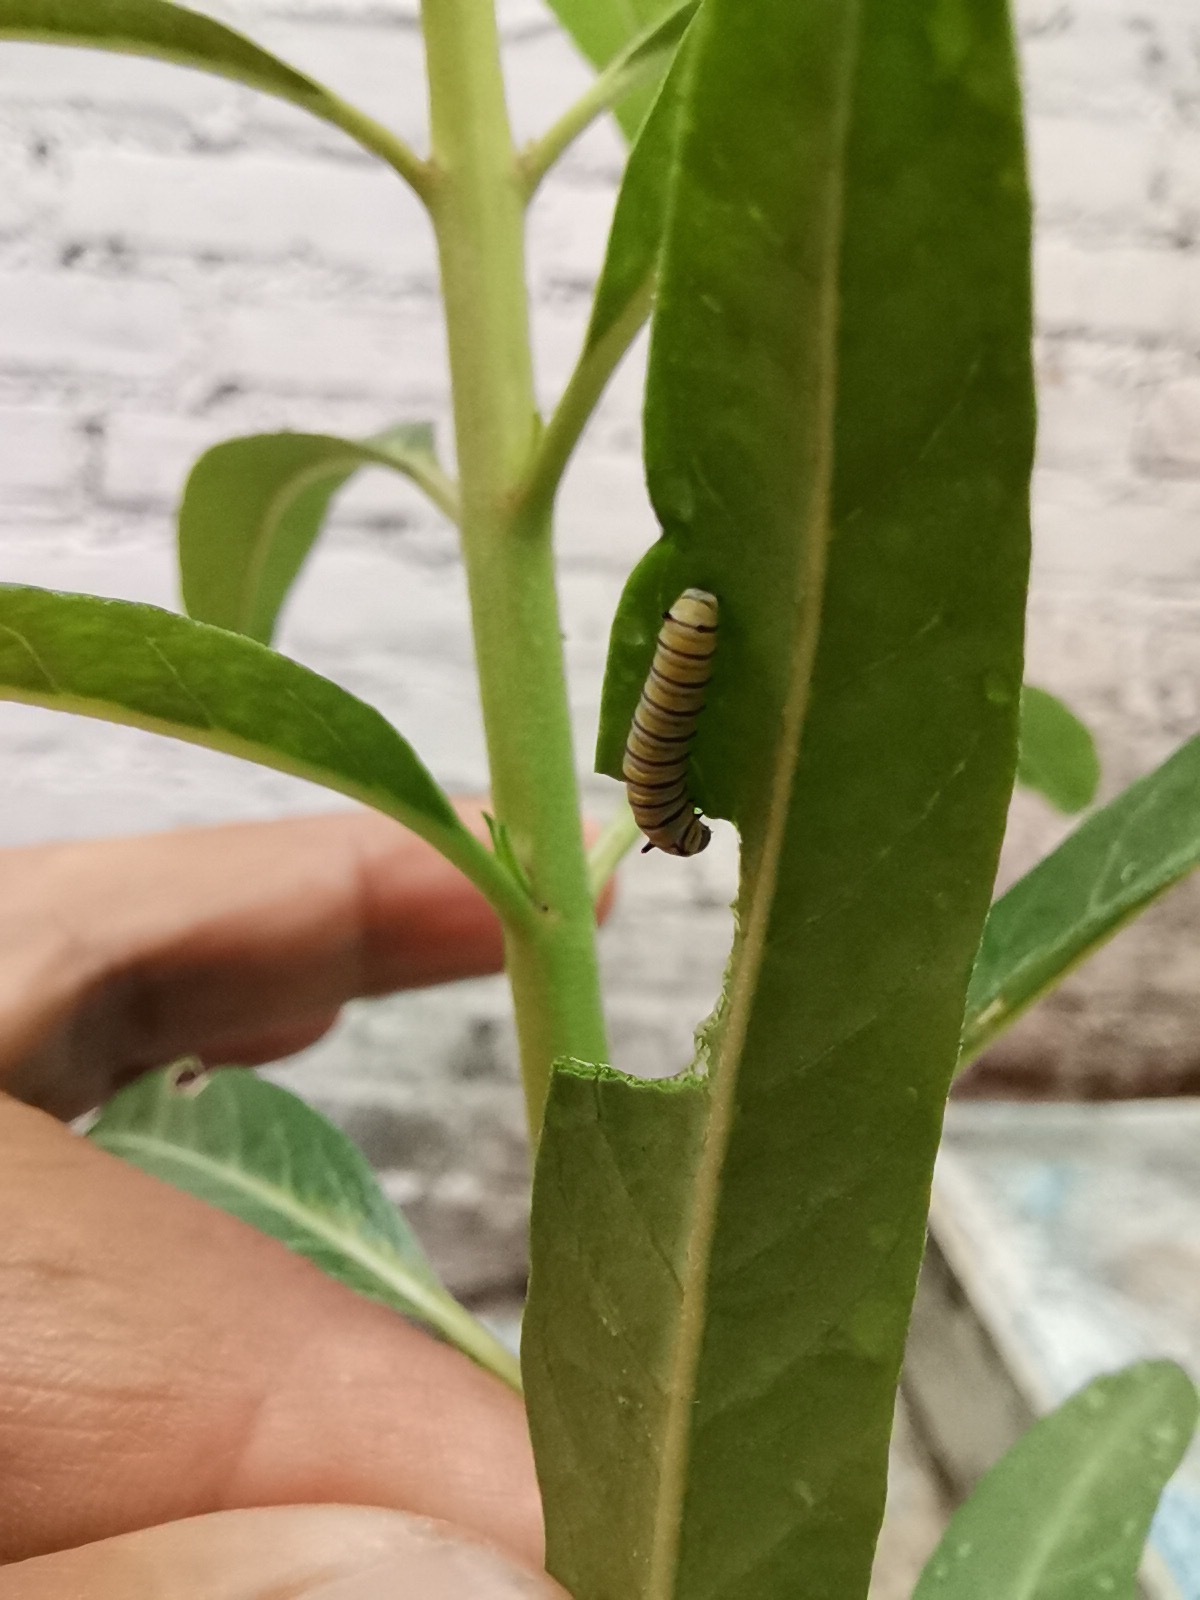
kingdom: Animalia
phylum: Arthropoda
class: Insecta
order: Lepidoptera
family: Nymphalidae
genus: Danaus
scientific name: Danaus plexippus
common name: Monarch
